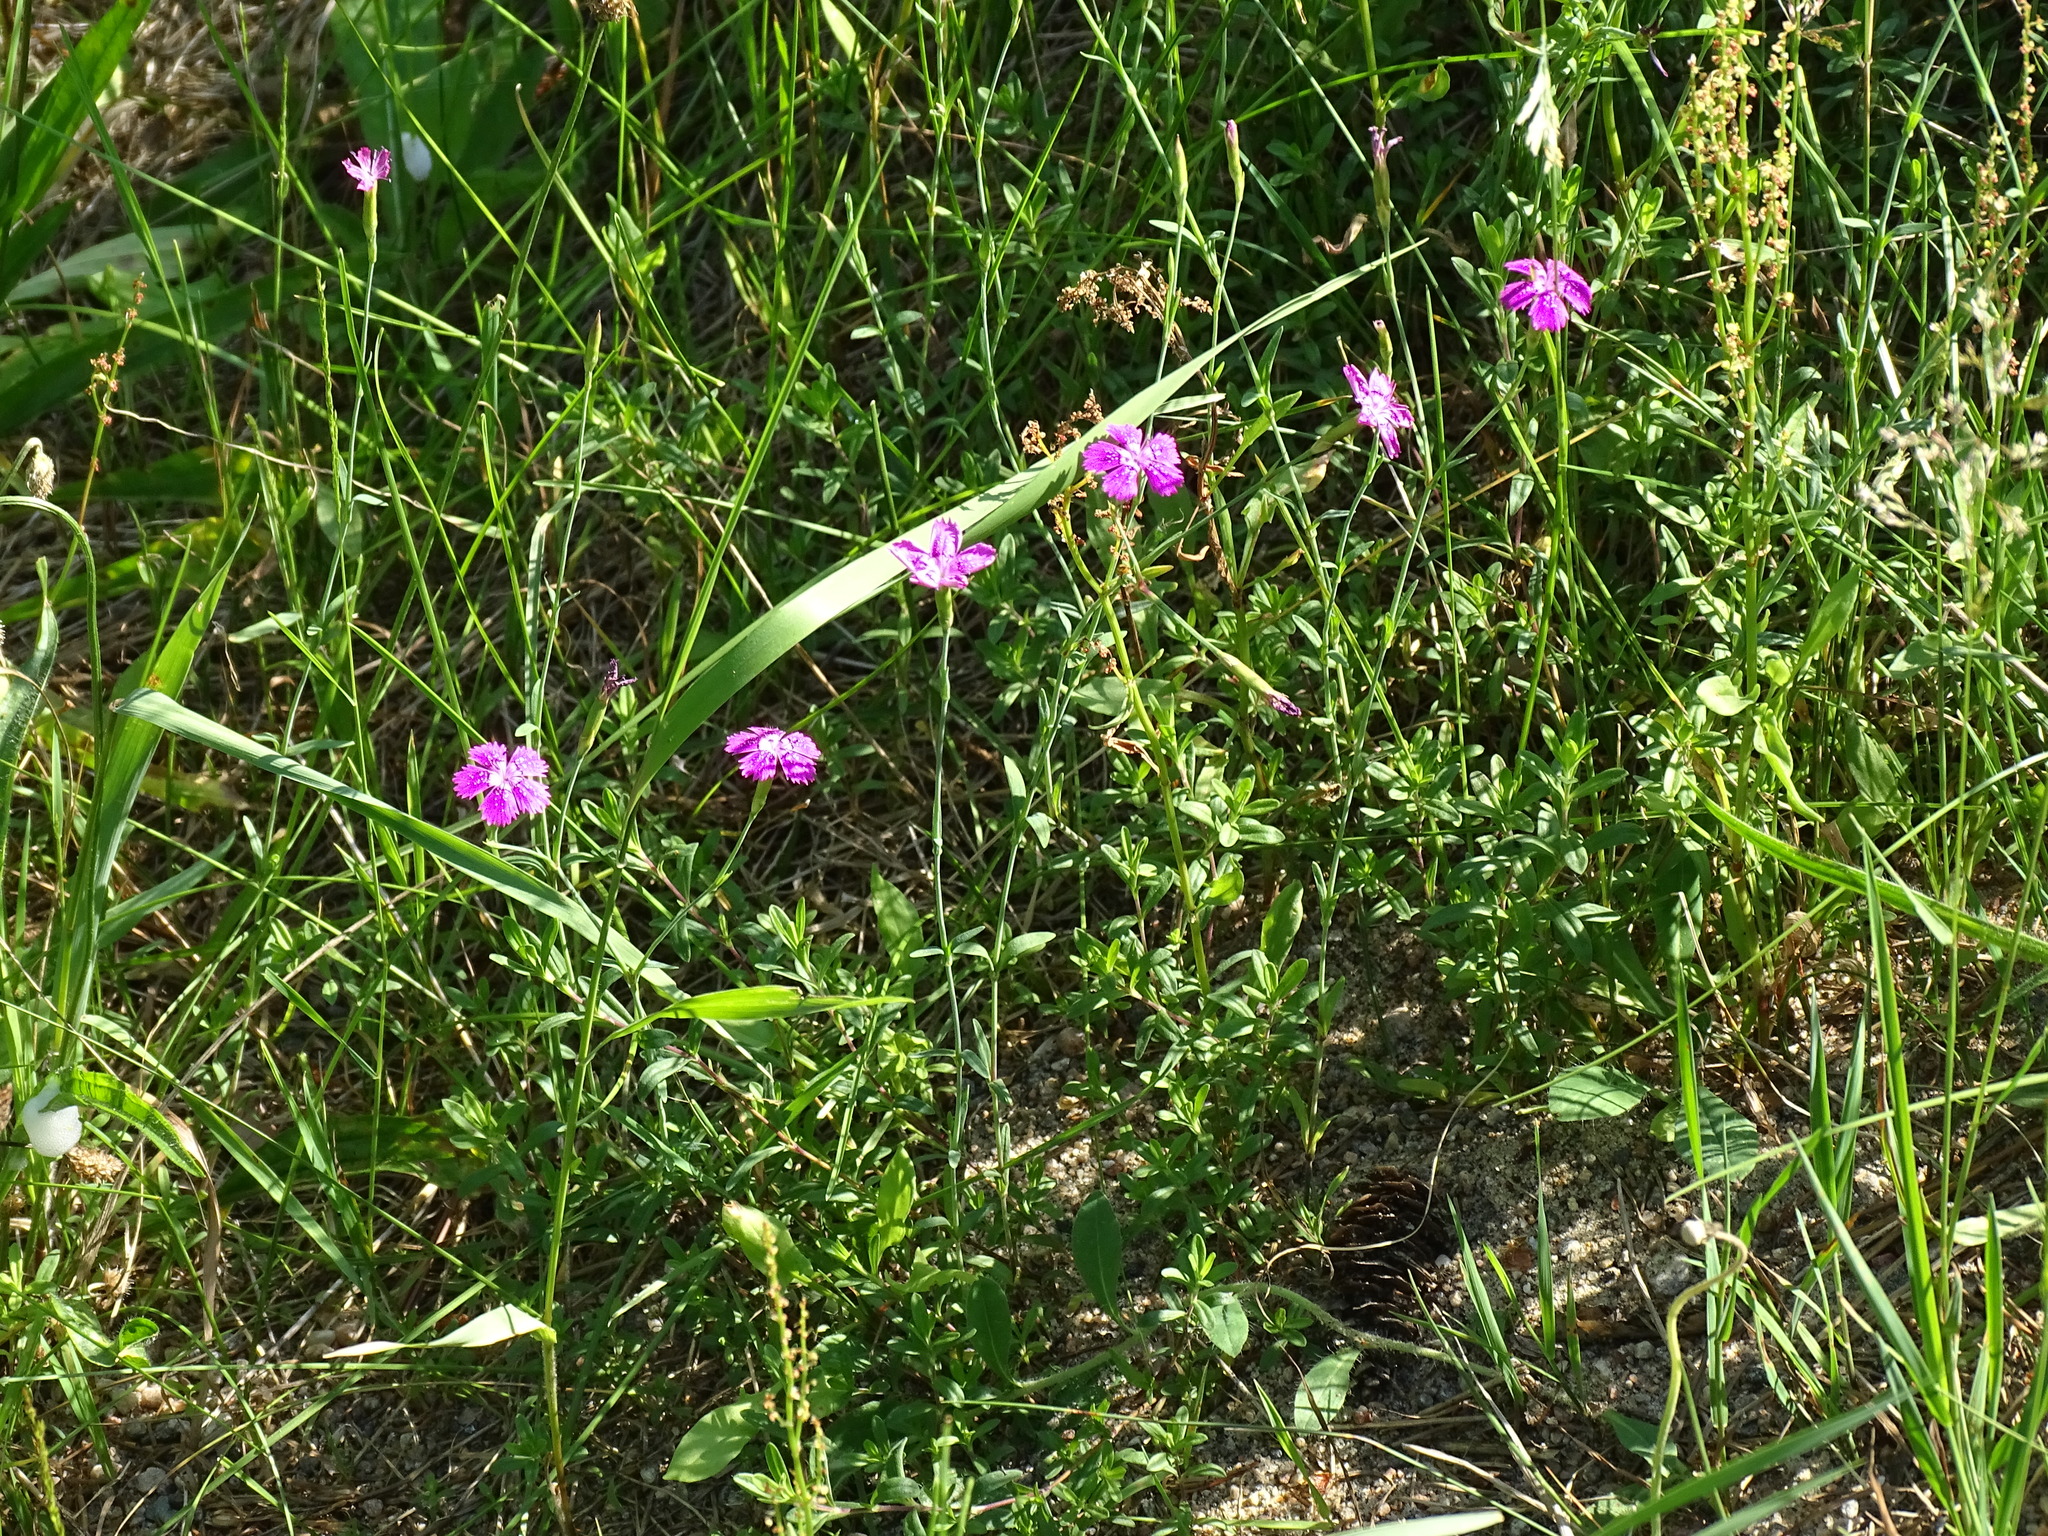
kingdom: Plantae
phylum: Tracheophyta
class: Magnoliopsida
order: Caryophyllales
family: Caryophyllaceae
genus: Dianthus
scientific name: Dianthus deltoides
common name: Maiden pink
